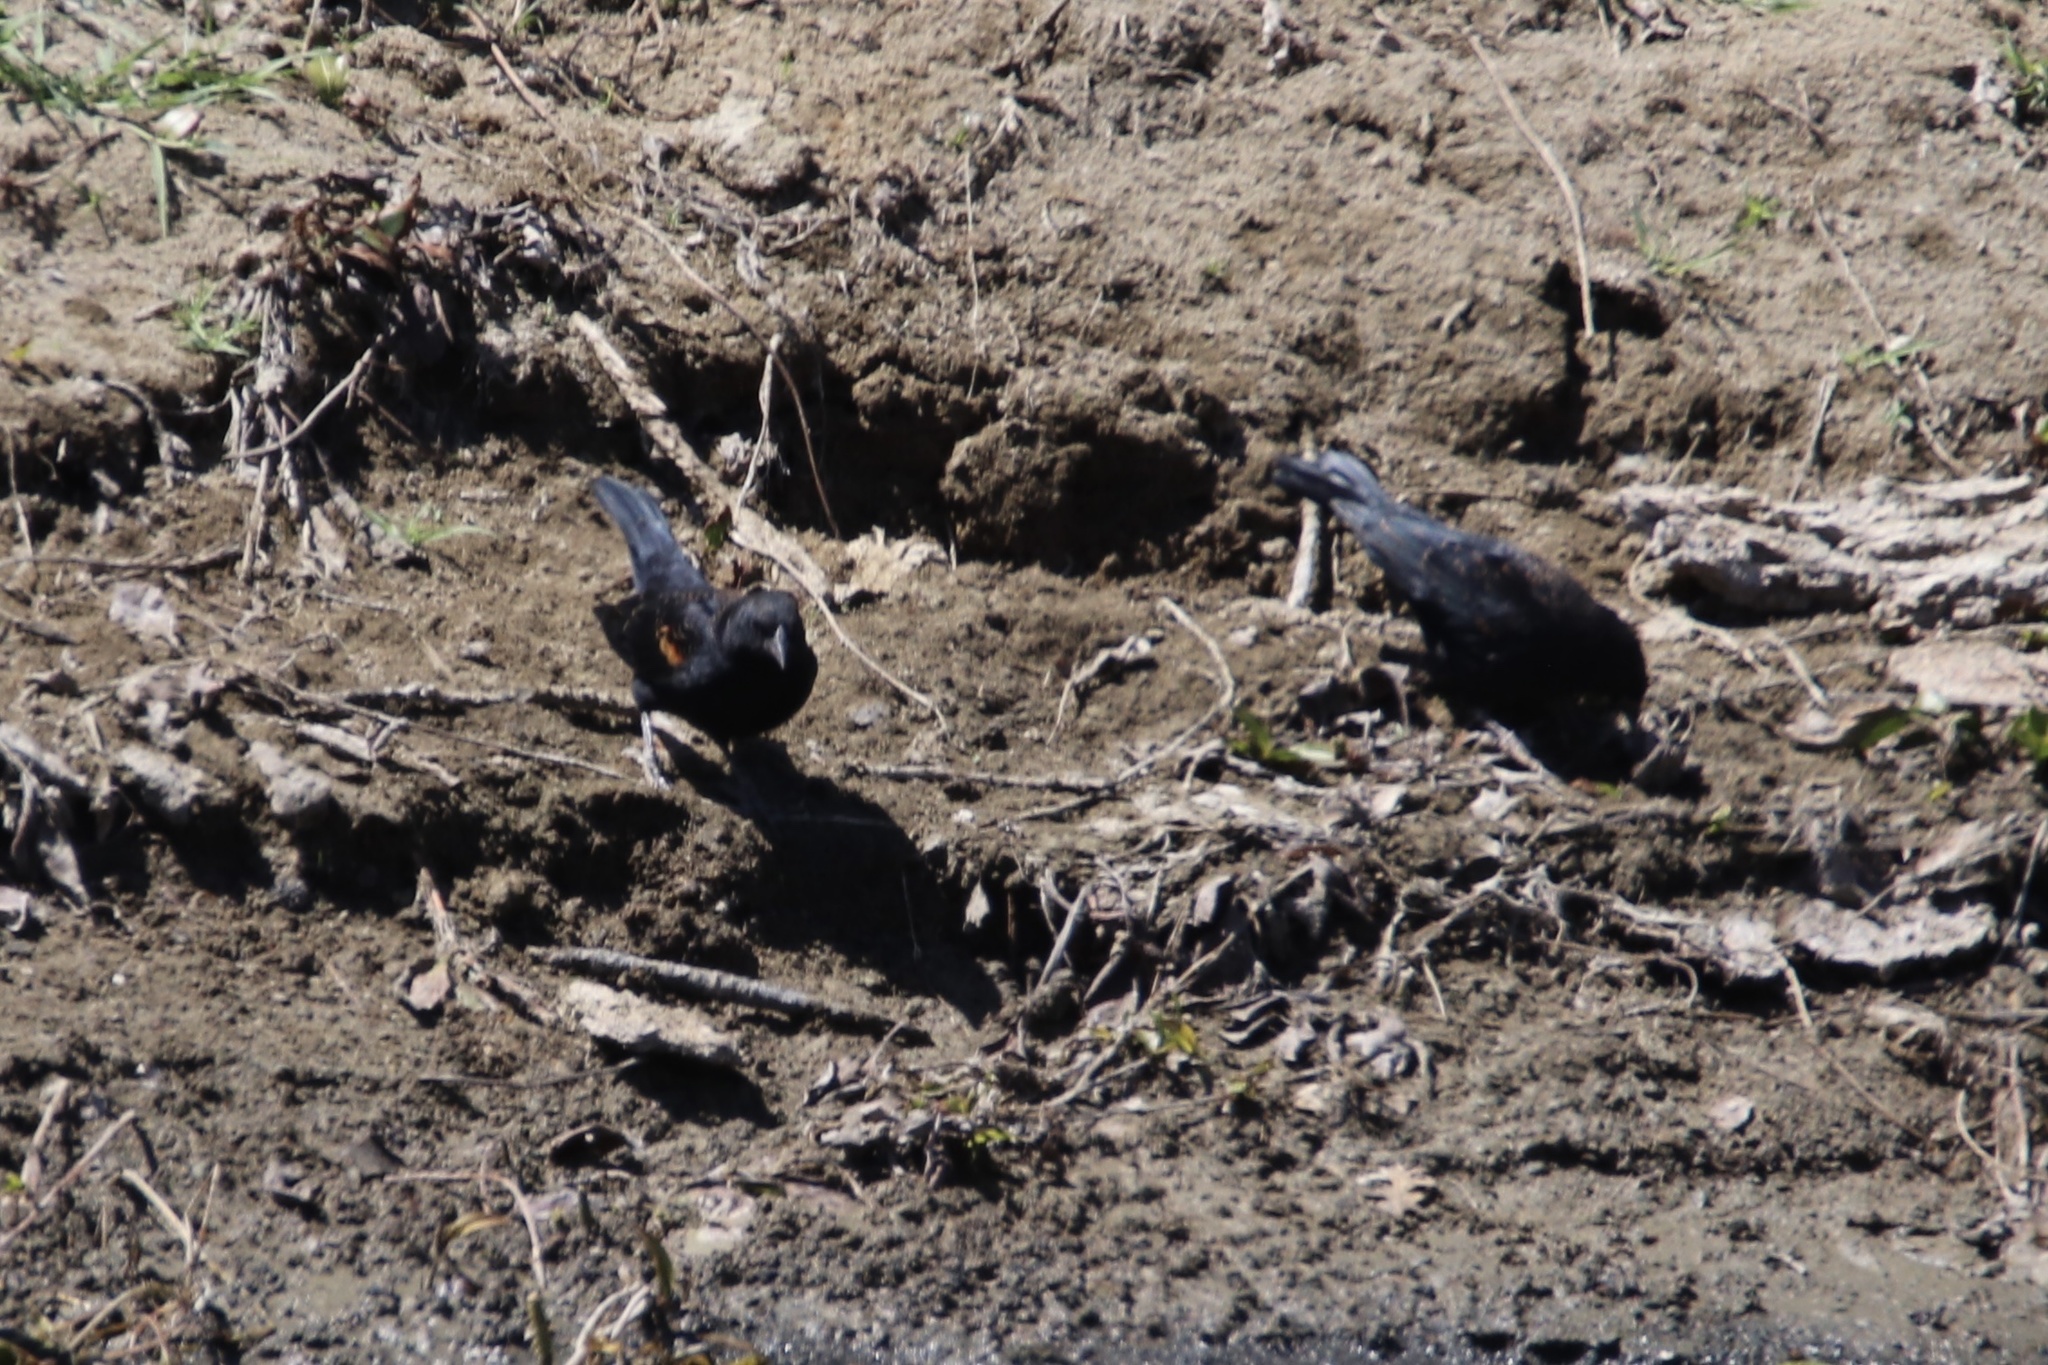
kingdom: Animalia
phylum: Chordata
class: Aves
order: Passeriformes
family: Icteridae
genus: Agelaius
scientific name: Agelaius phoeniceus
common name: Red-winged blackbird
